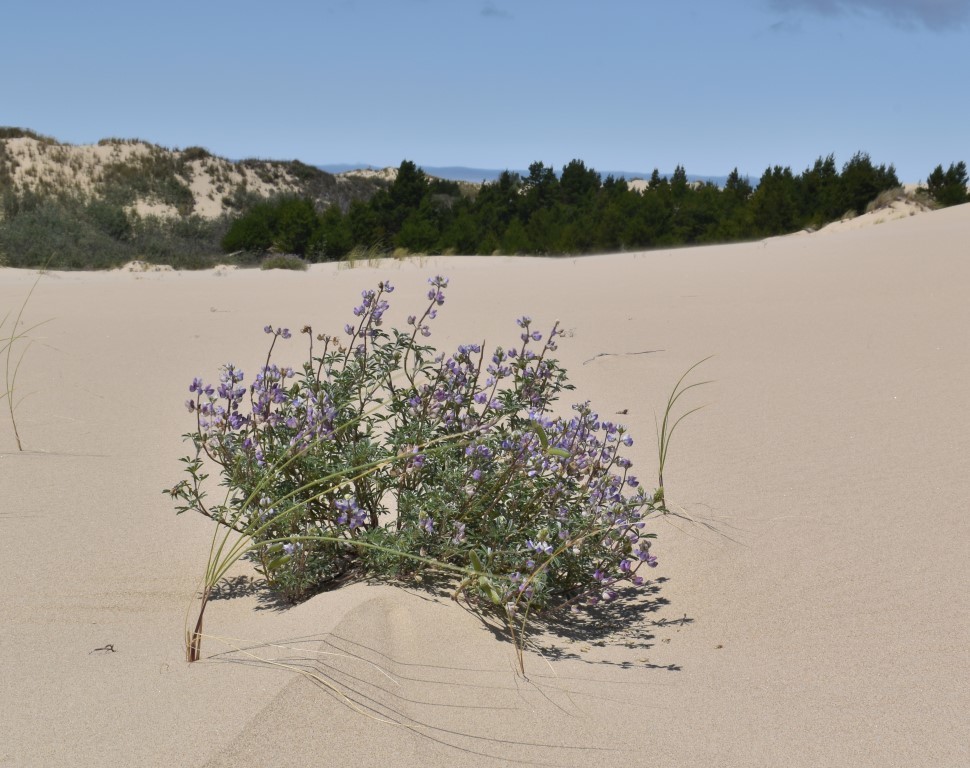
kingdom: Plantae
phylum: Tracheophyta
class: Magnoliopsida
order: Fabales
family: Fabaceae
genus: Lupinus
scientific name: Lupinus littoralis
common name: Seashore lupine
